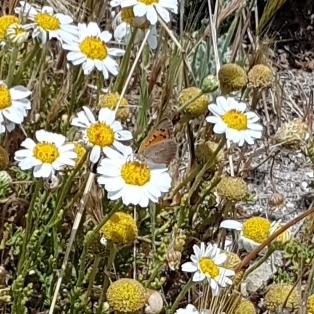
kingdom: Animalia
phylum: Arthropoda
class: Insecta
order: Lepidoptera
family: Lycaenidae
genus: Lycaena
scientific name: Lycaena phlaeas
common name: Small copper
